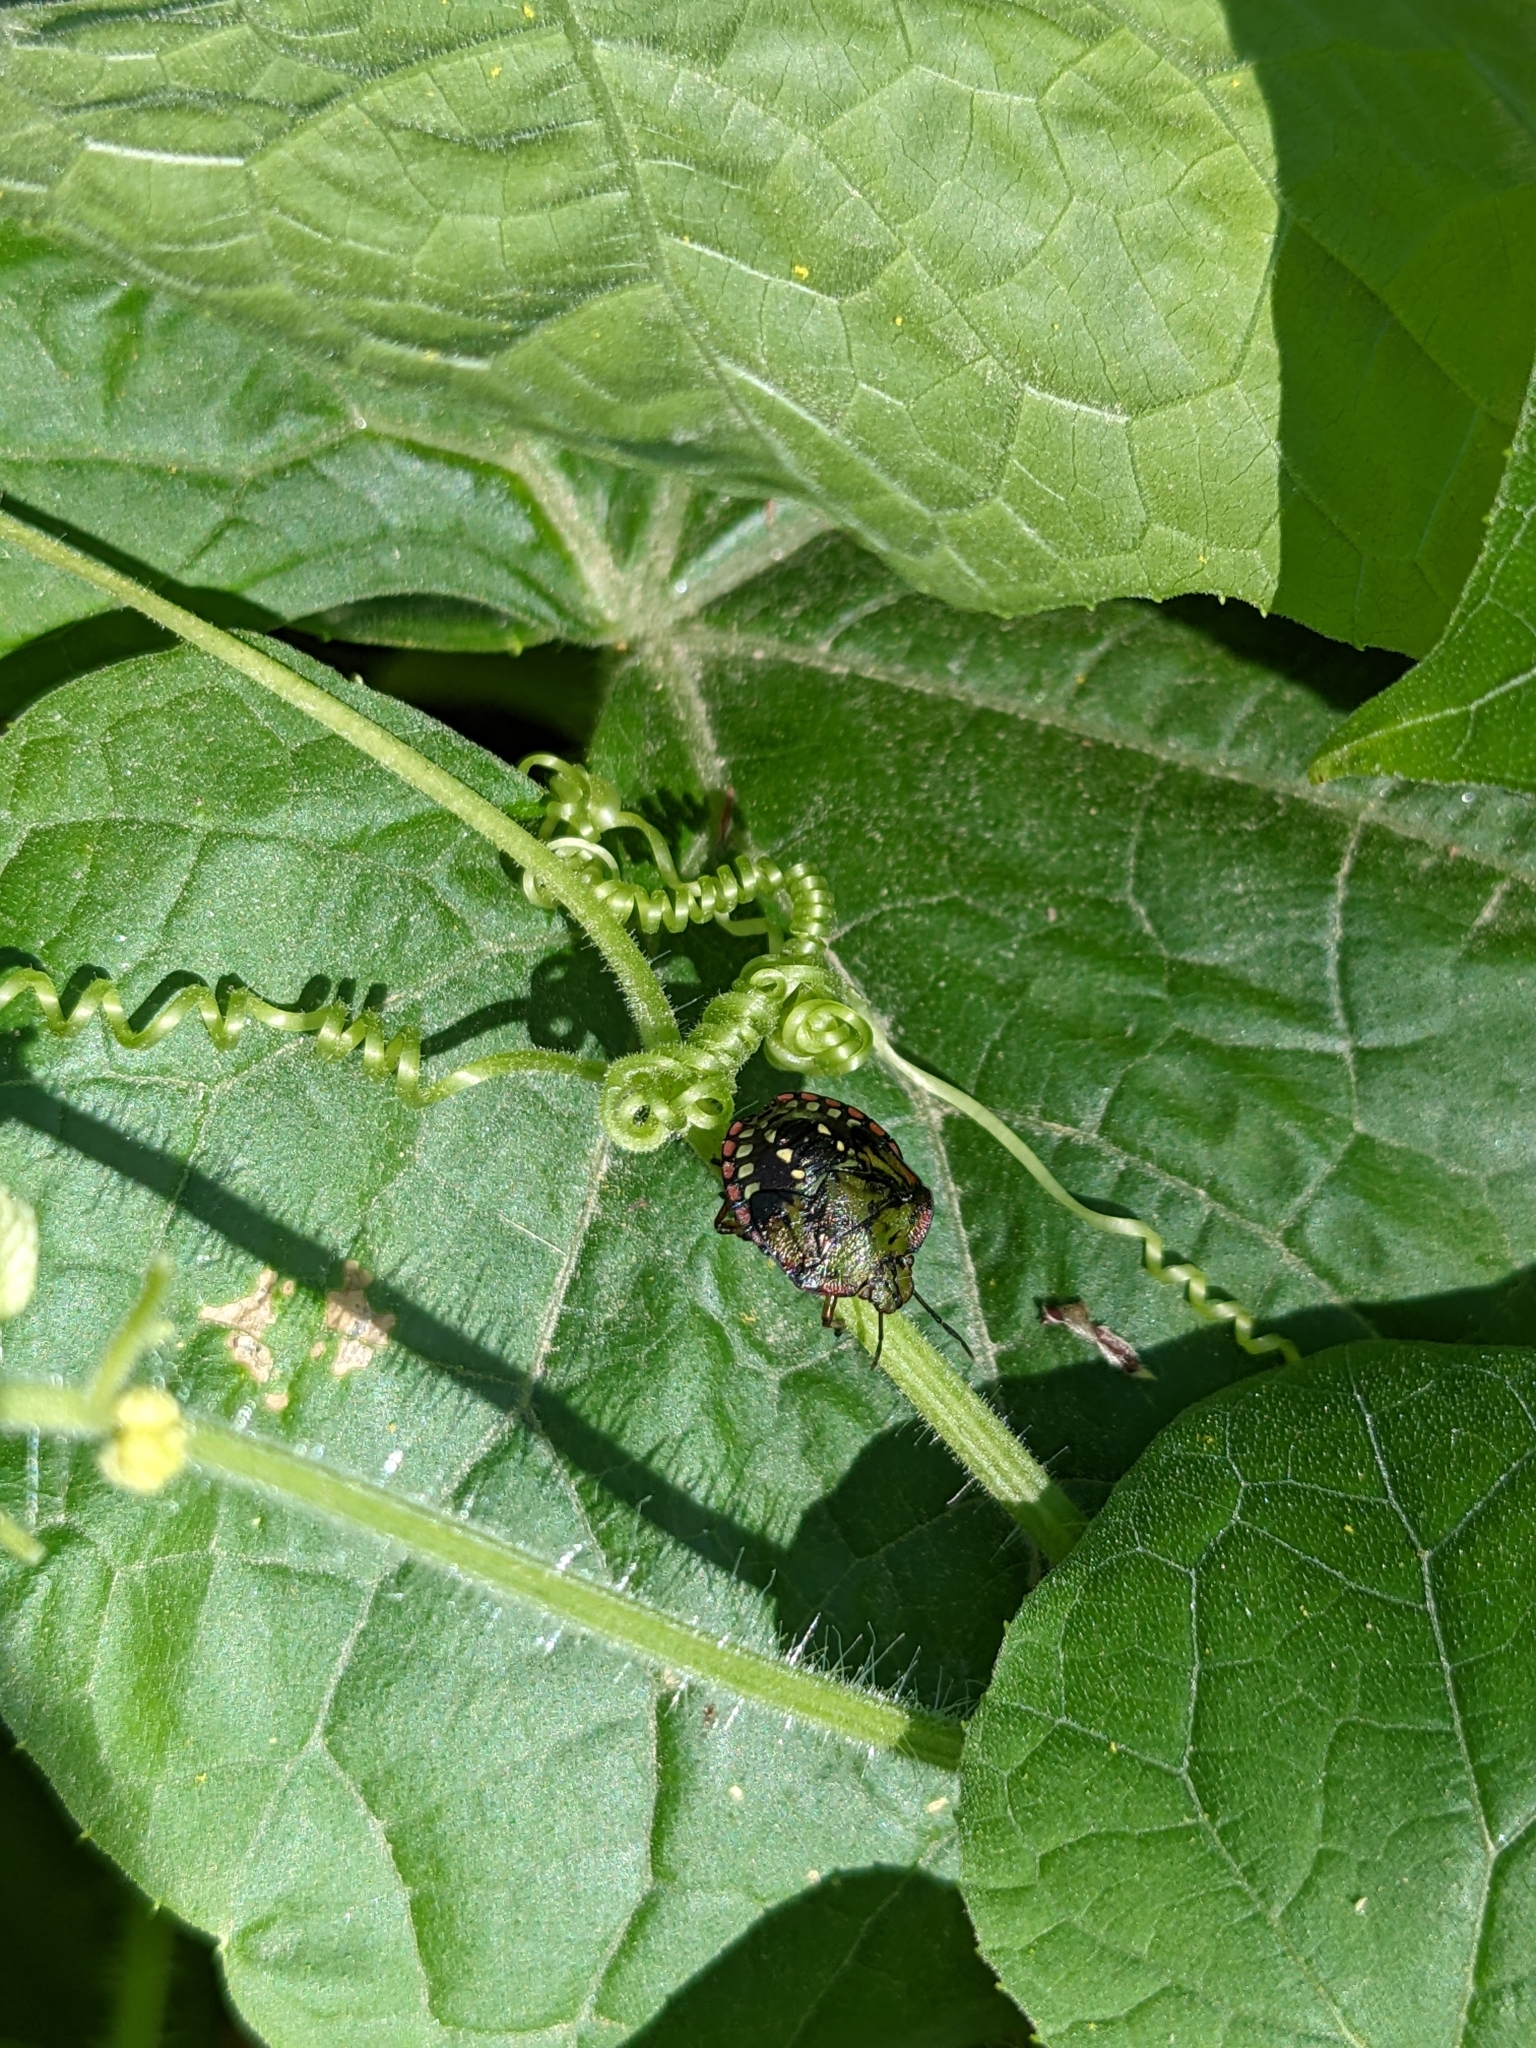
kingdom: Animalia
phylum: Arthropoda
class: Insecta
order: Hemiptera
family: Pentatomidae
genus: Nezara
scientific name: Nezara viridula
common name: Southern green stink bug
